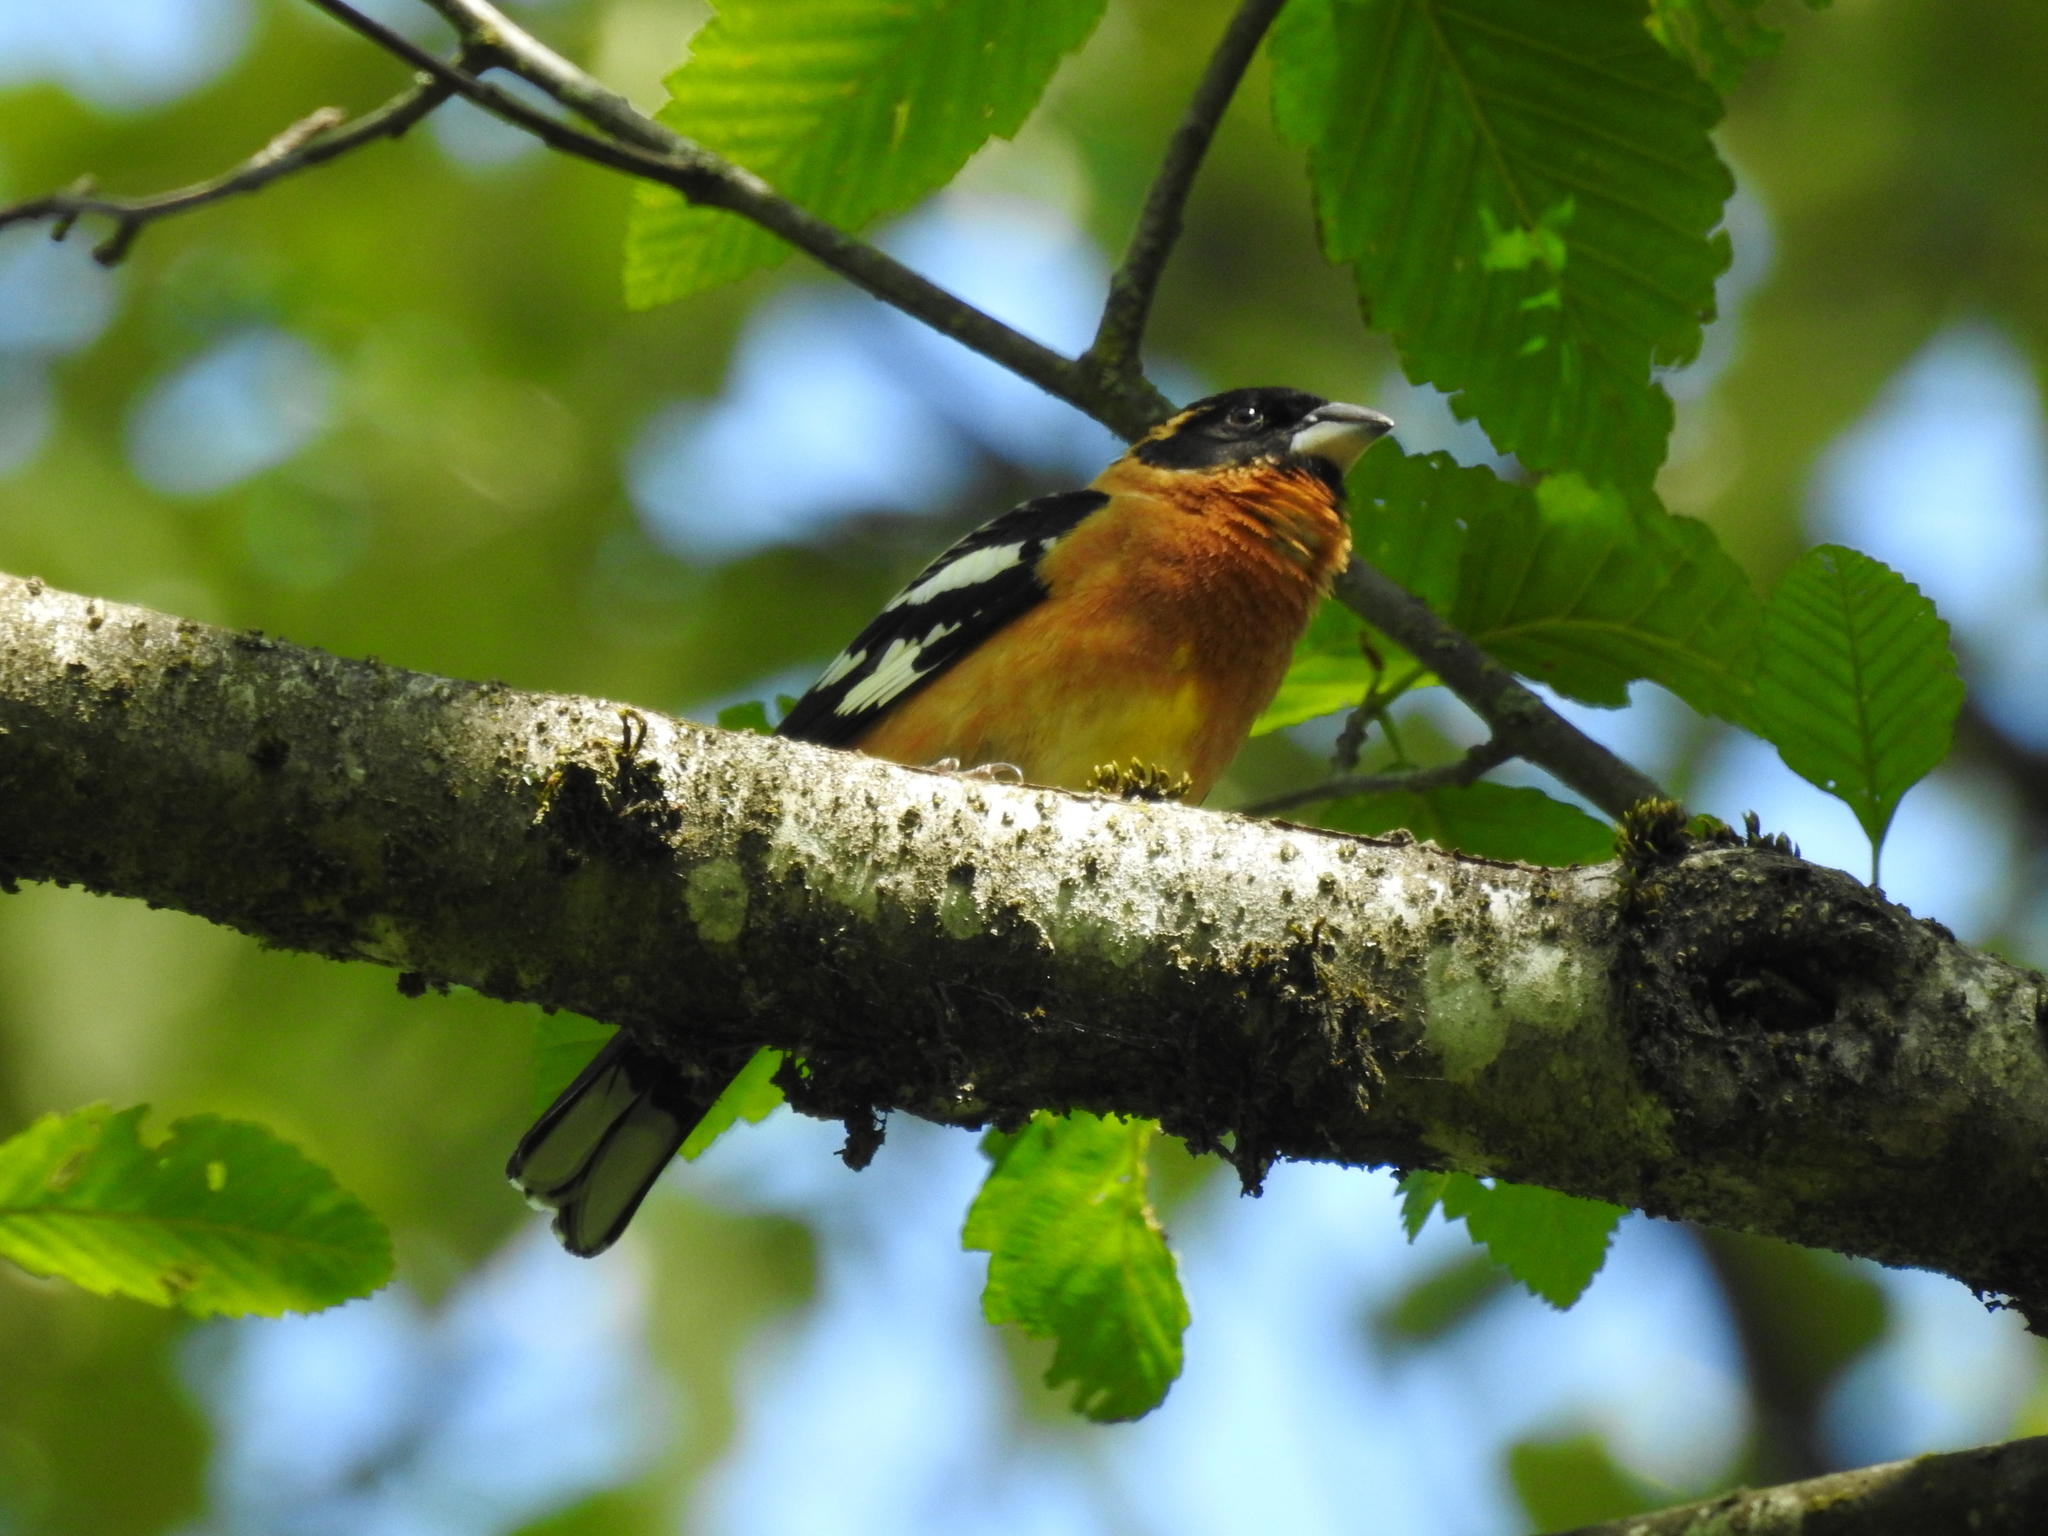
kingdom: Animalia
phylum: Chordata
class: Aves
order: Passeriformes
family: Cardinalidae
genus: Pheucticus
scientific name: Pheucticus melanocephalus
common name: Black-headed grosbeak
